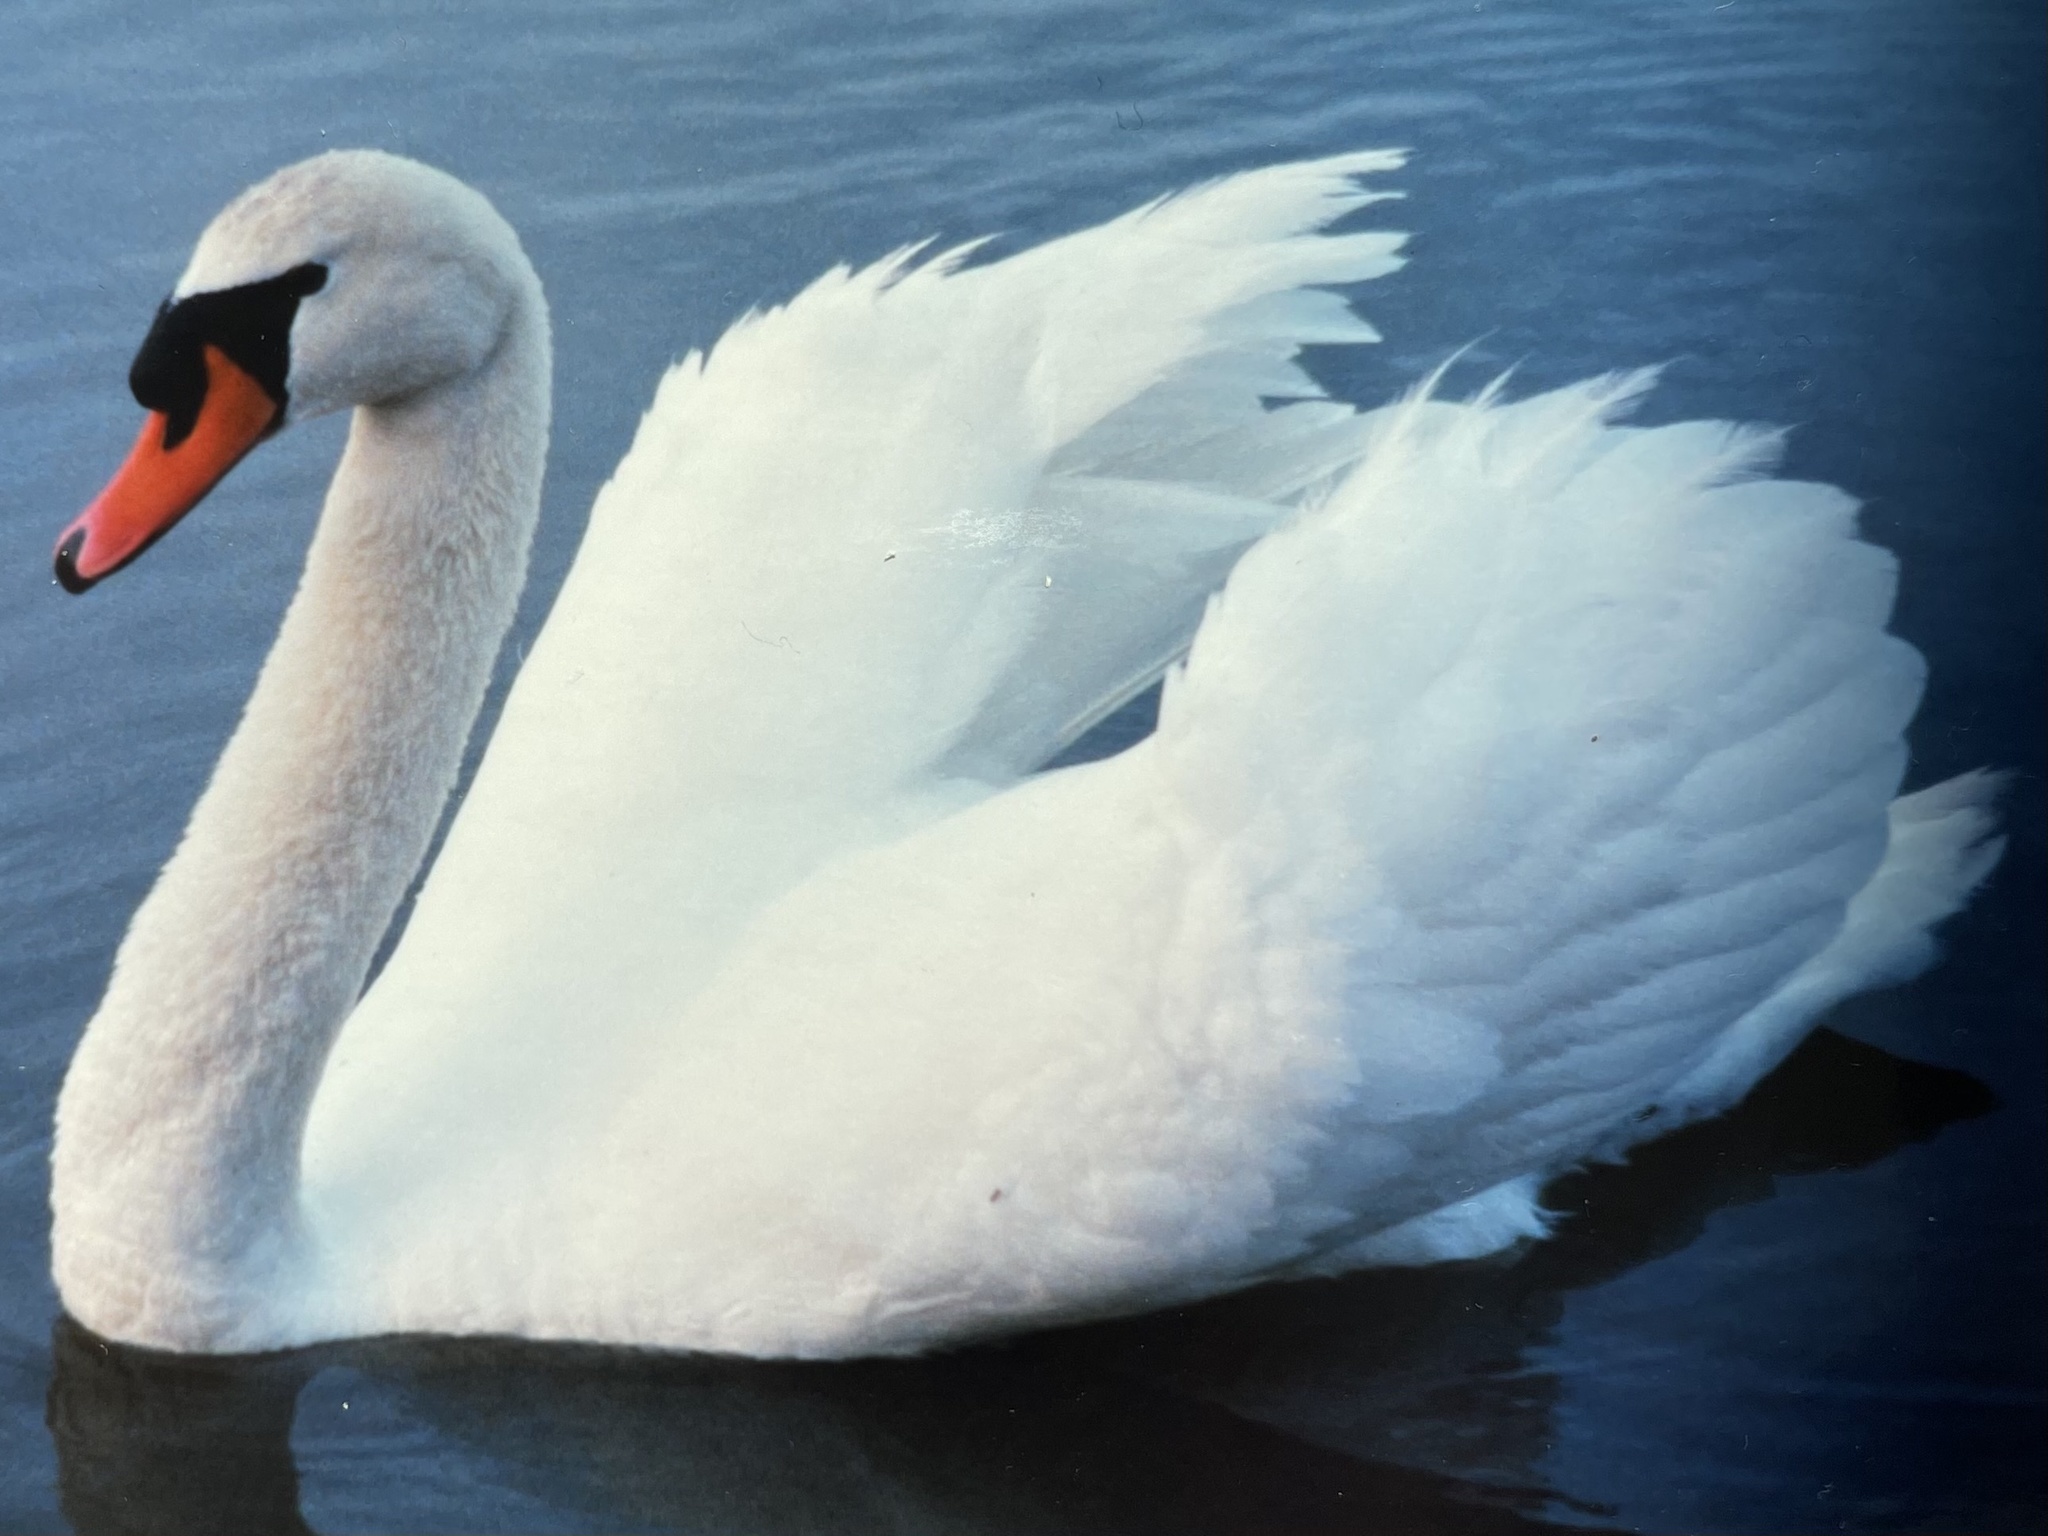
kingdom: Animalia
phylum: Chordata
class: Aves
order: Anseriformes
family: Anatidae
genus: Cygnus
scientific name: Cygnus olor
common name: Mute swan
